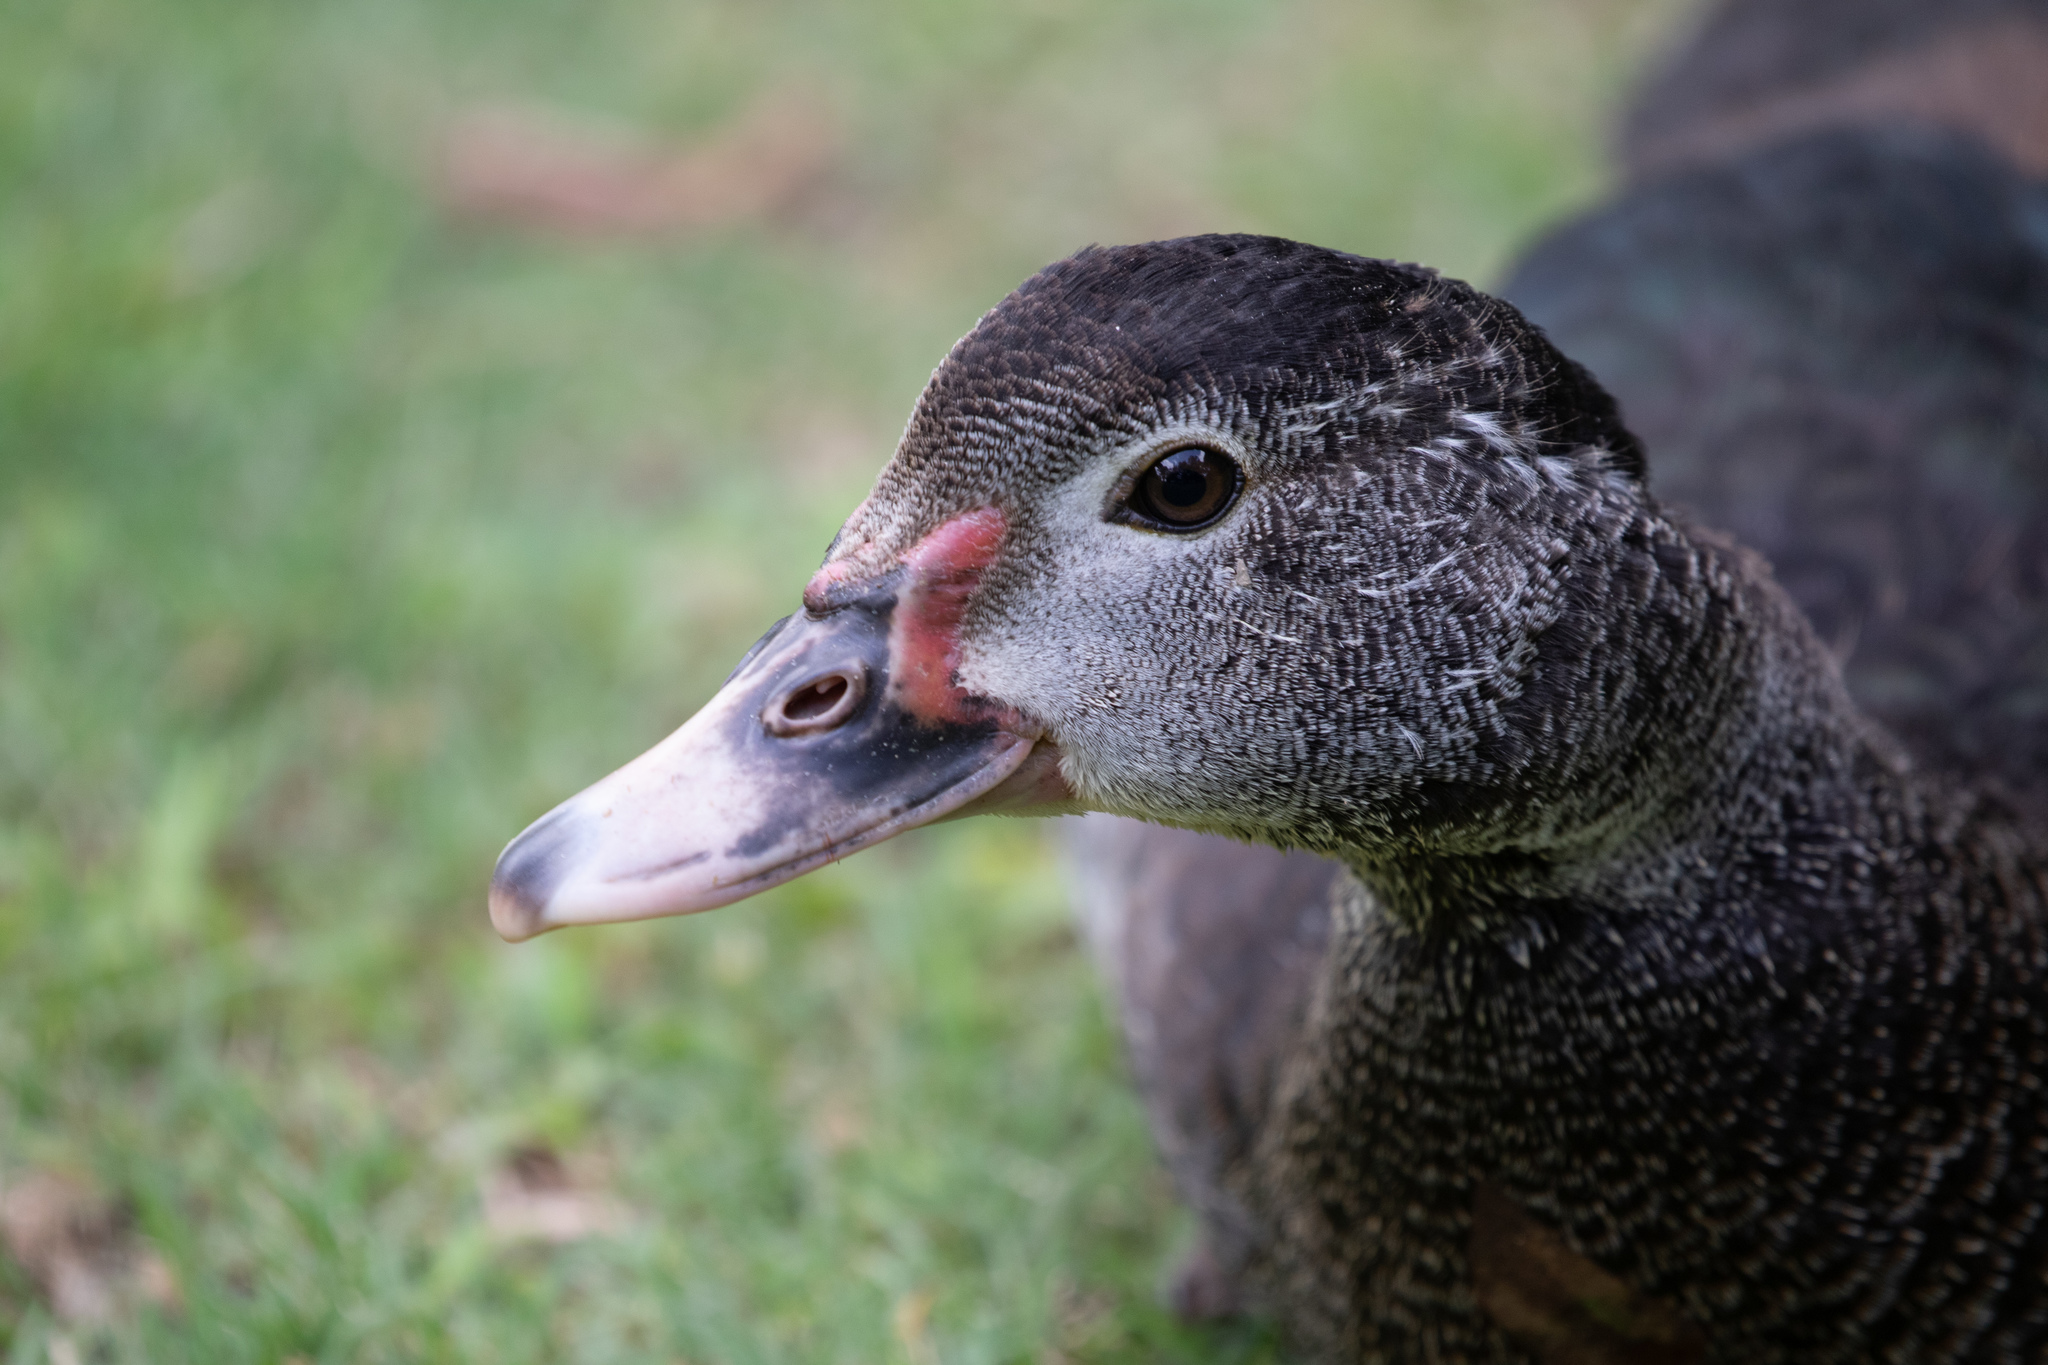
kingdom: Animalia
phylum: Chordata
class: Aves
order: Anseriformes
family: Anatidae
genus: Cairina
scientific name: Cairina moschata
